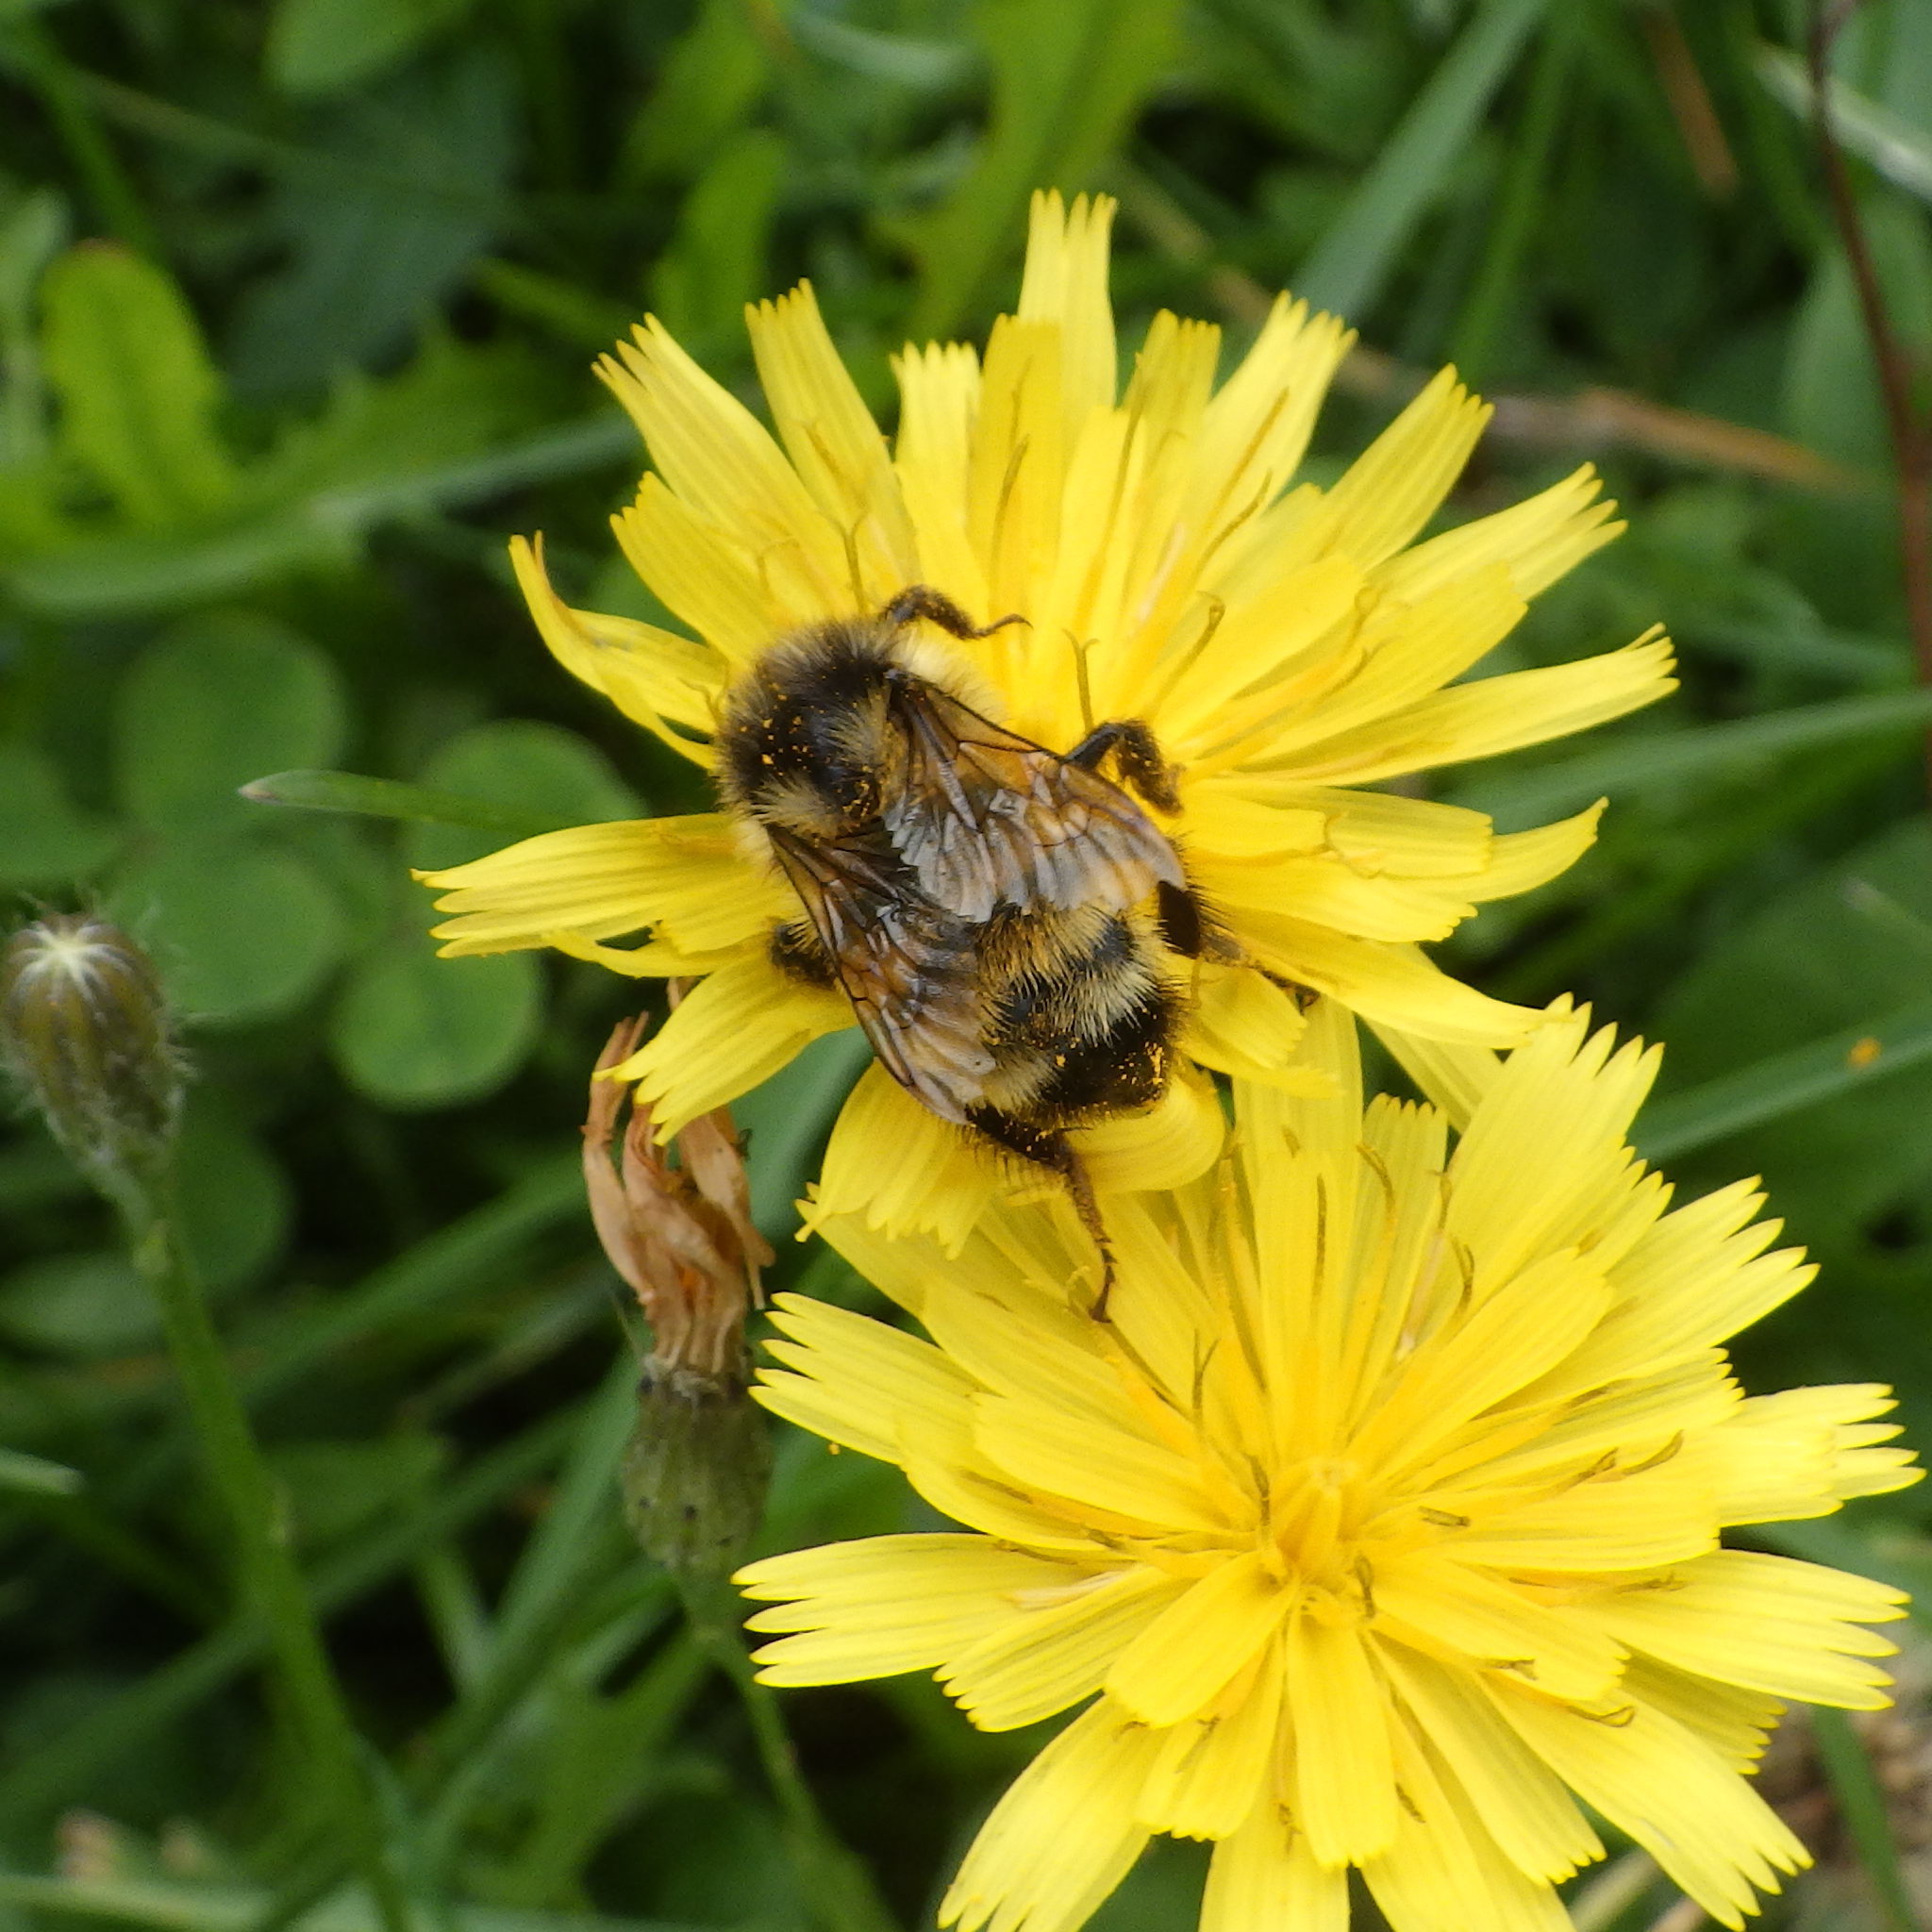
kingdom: Animalia
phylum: Arthropoda
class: Insecta
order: Hymenoptera
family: Apidae
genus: Bombus
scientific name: Bombus ternarius
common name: Tri-colored bumble bee
